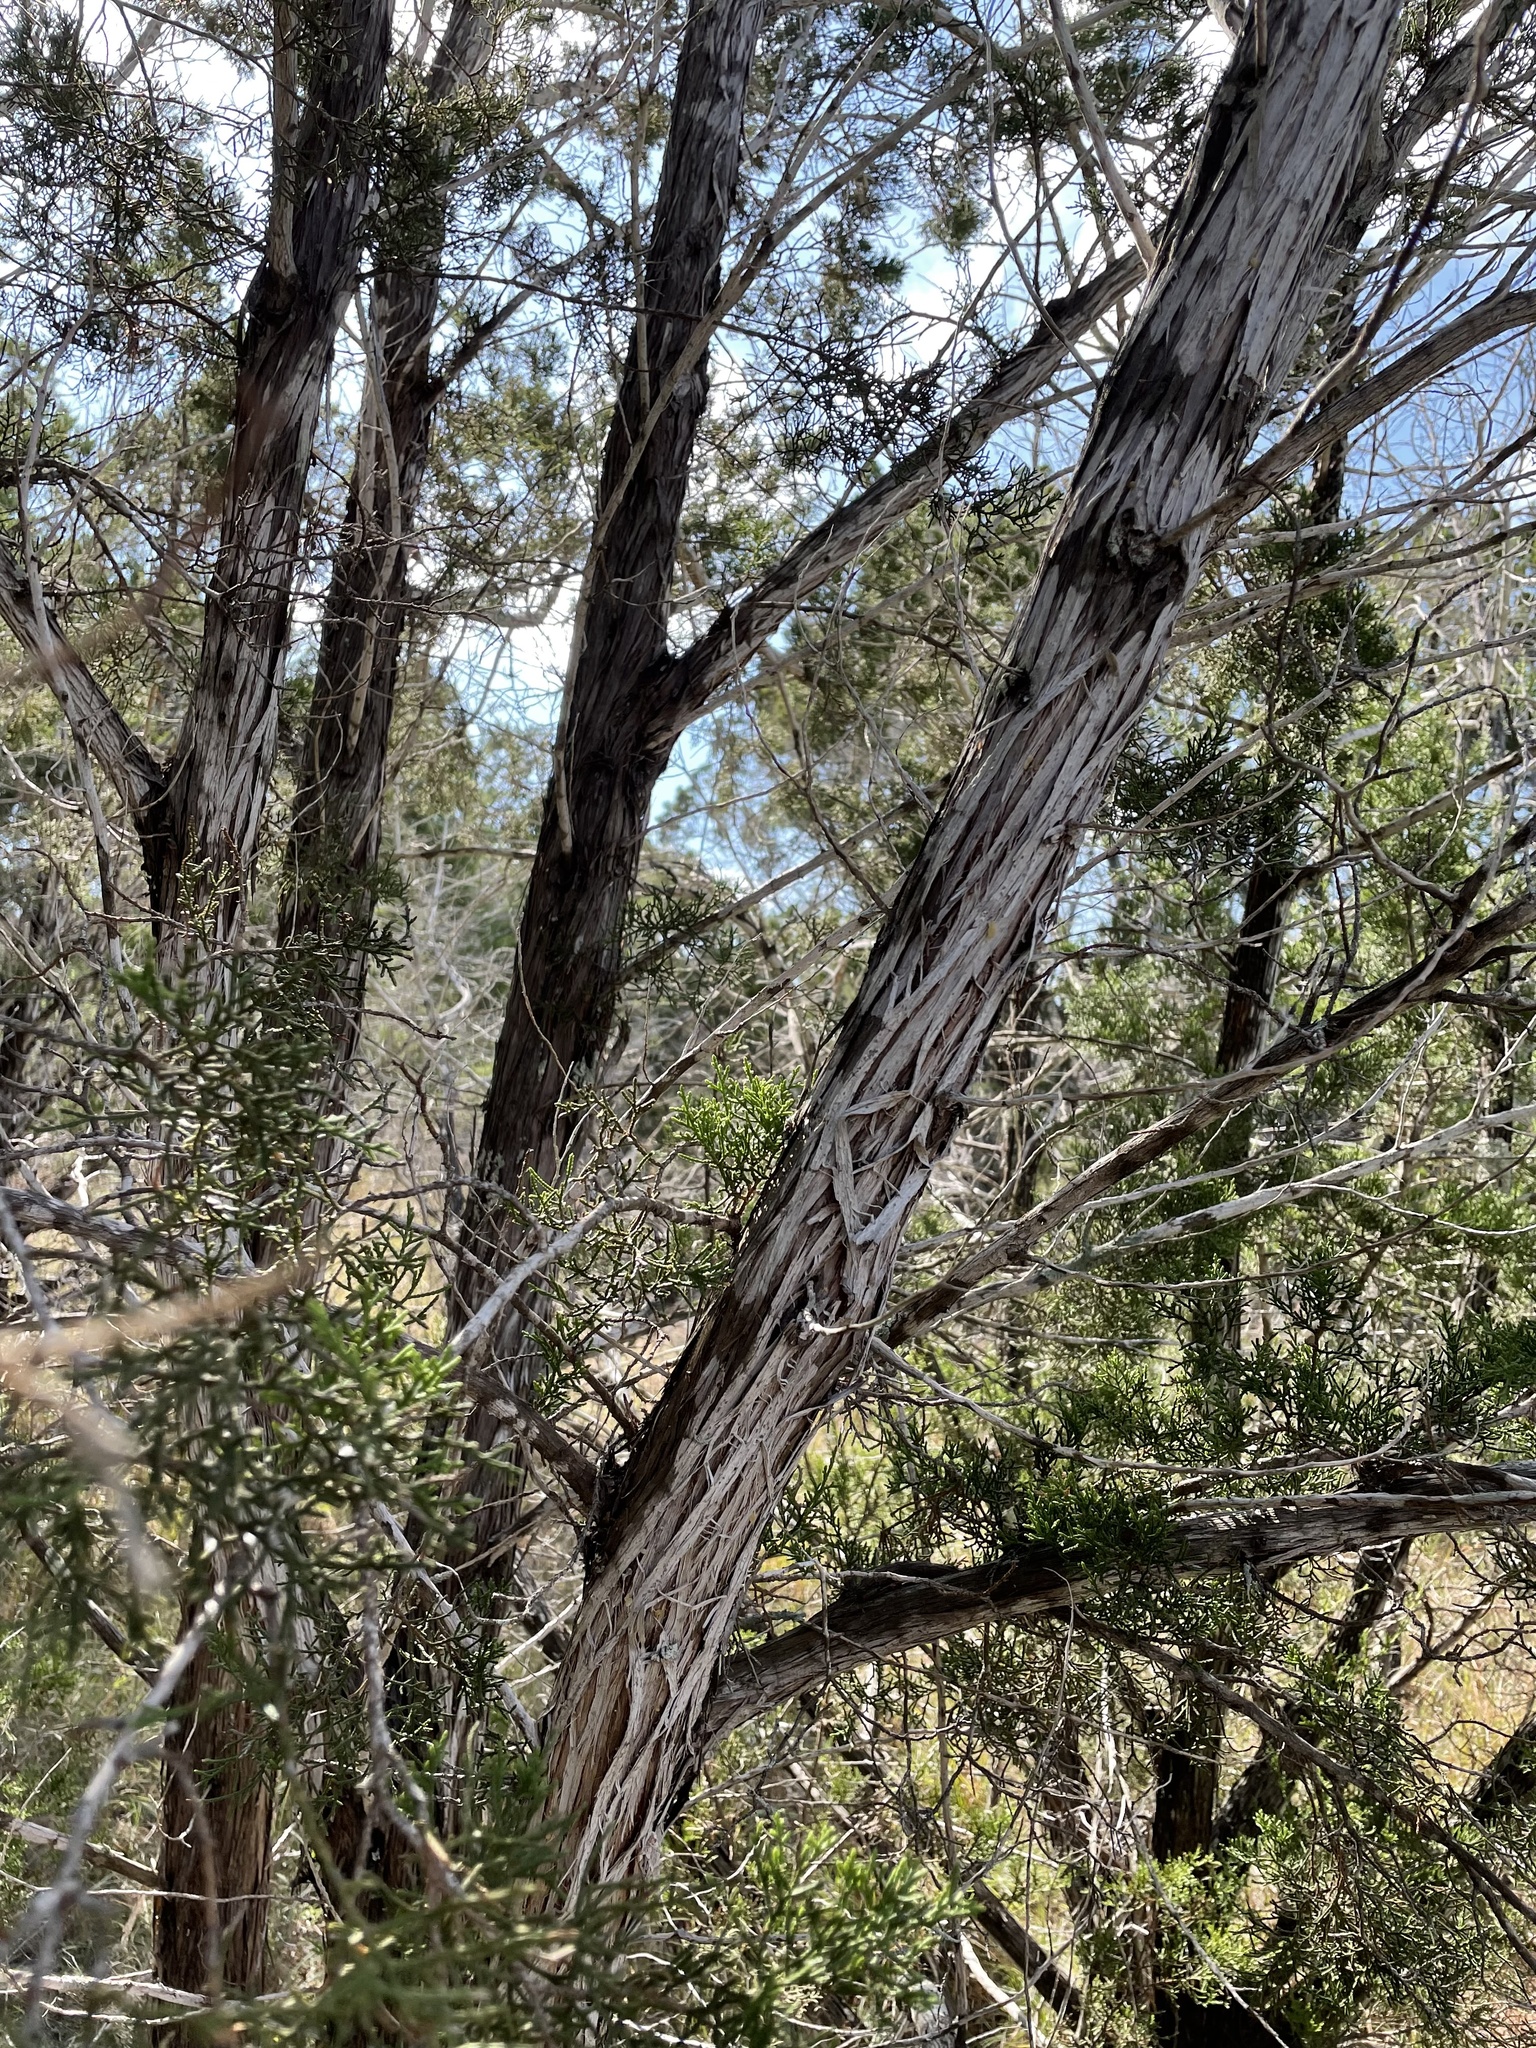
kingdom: Plantae
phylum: Tracheophyta
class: Pinopsida
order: Pinales
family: Cupressaceae
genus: Juniperus
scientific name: Juniperus ashei
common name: Mexican juniper
